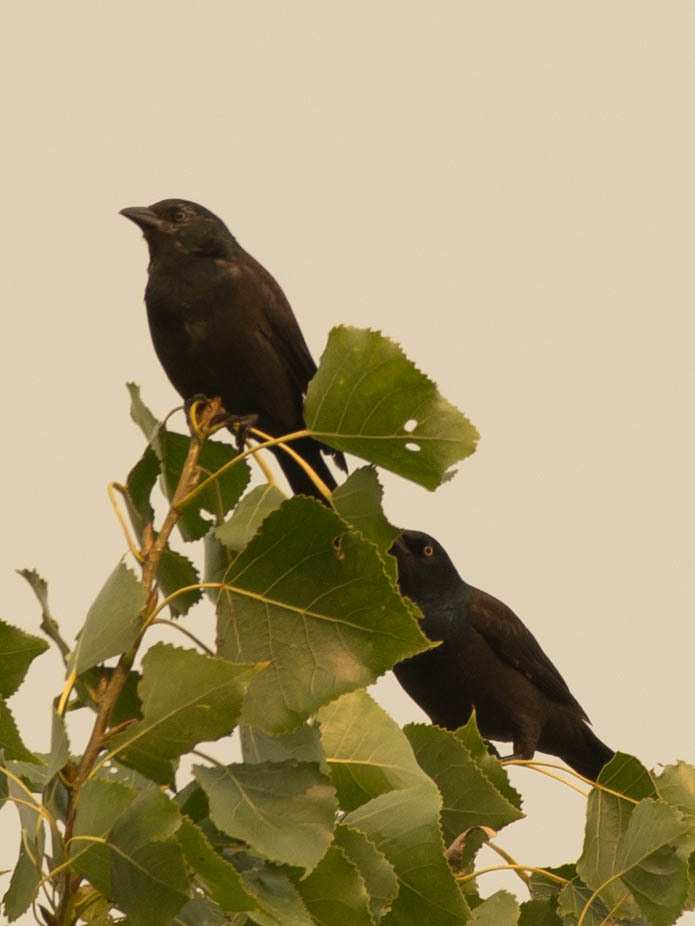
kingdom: Animalia
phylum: Chordata
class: Aves
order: Passeriformes
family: Icteridae
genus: Quiscalus
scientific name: Quiscalus quiscula
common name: Common grackle
